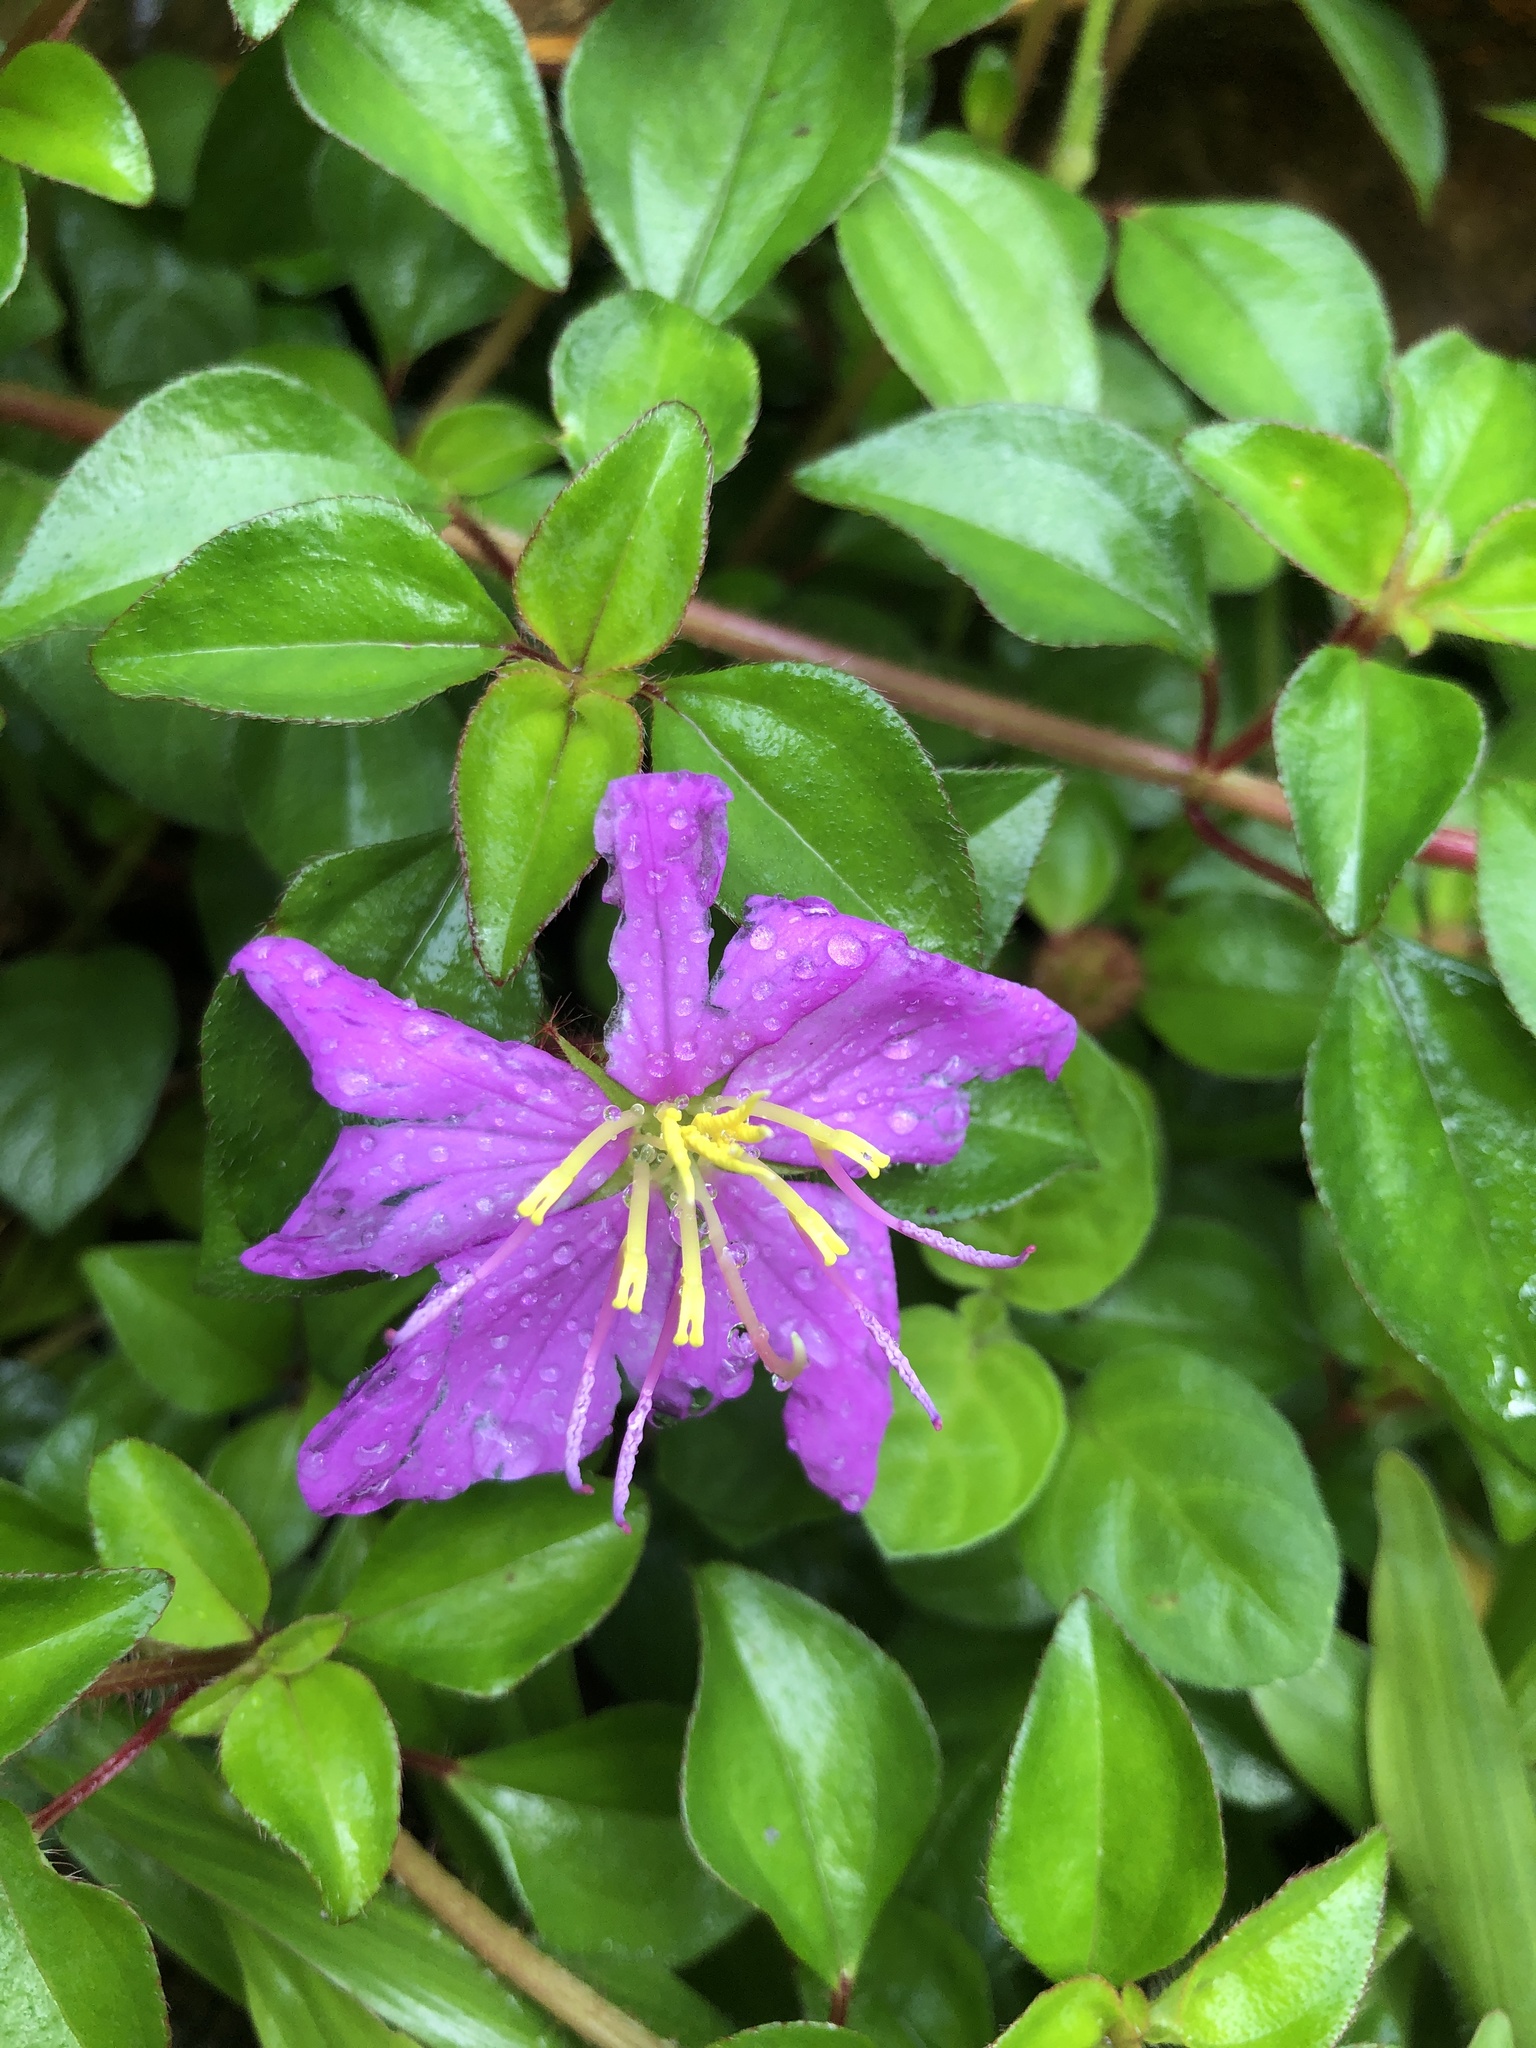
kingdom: Plantae
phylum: Tracheophyta
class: Magnoliopsida
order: Myrtales
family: Melastomataceae
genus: Heterotis
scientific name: Heterotis rotundifolia
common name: Pinklady
